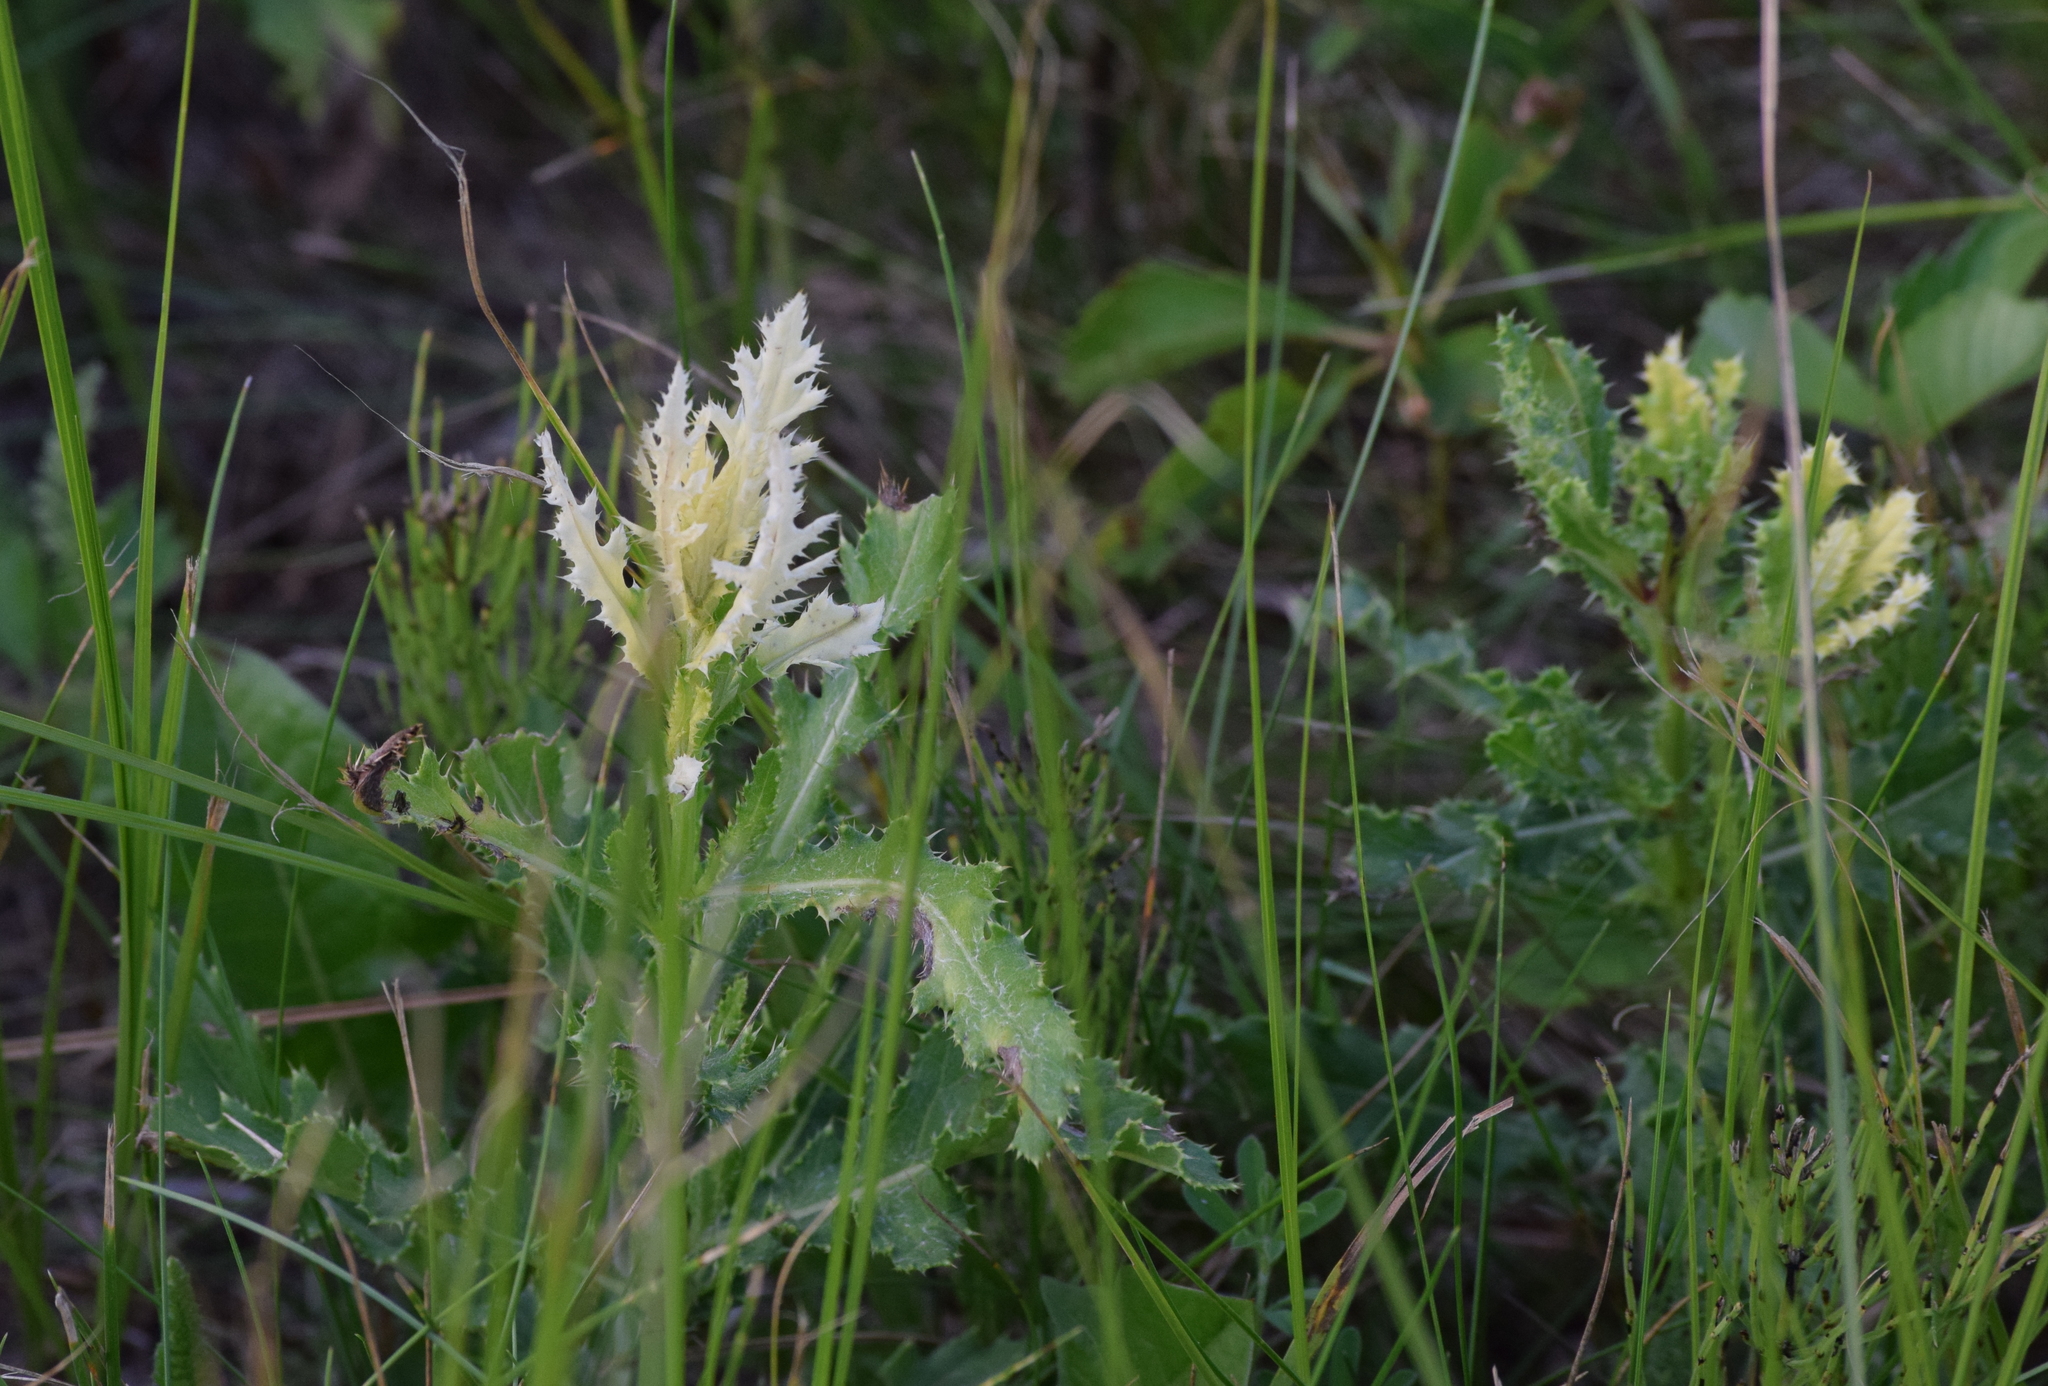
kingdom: Plantae
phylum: Tracheophyta
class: Magnoliopsida
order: Asterales
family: Asteraceae
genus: Cirsium
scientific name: Cirsium arvense
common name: Creeping thistle
